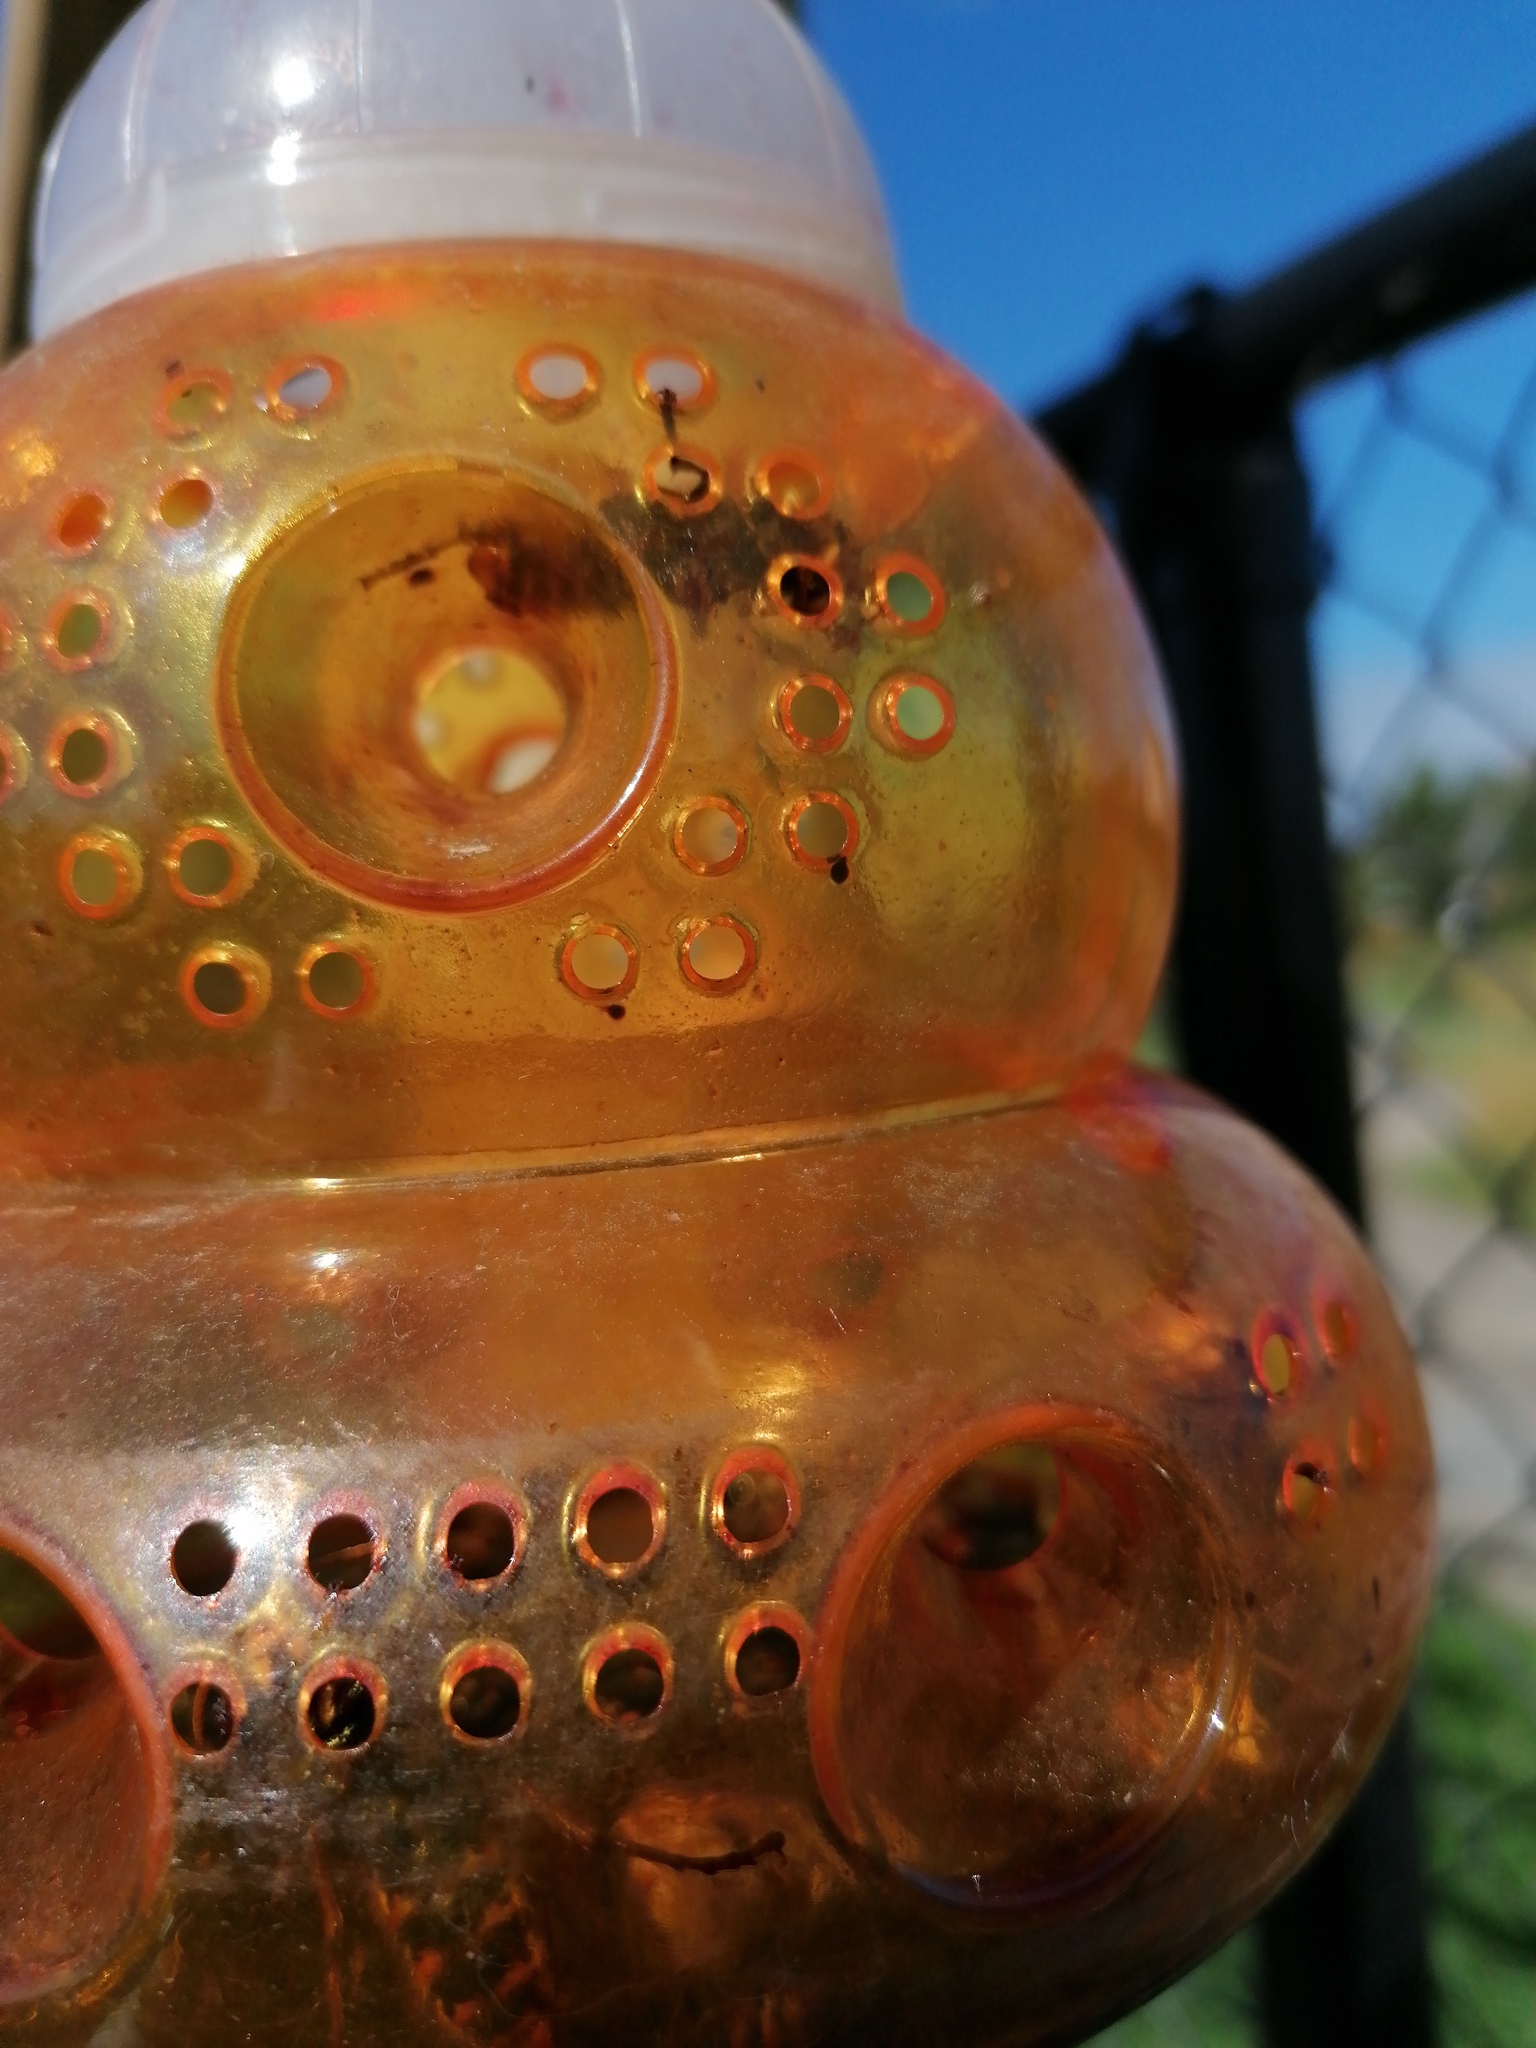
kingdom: Animalia
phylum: Arthropoda
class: Insecta
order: Hymenoptera
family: Vespidae
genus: Vespa
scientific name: Vespa crabro
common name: Hornet
